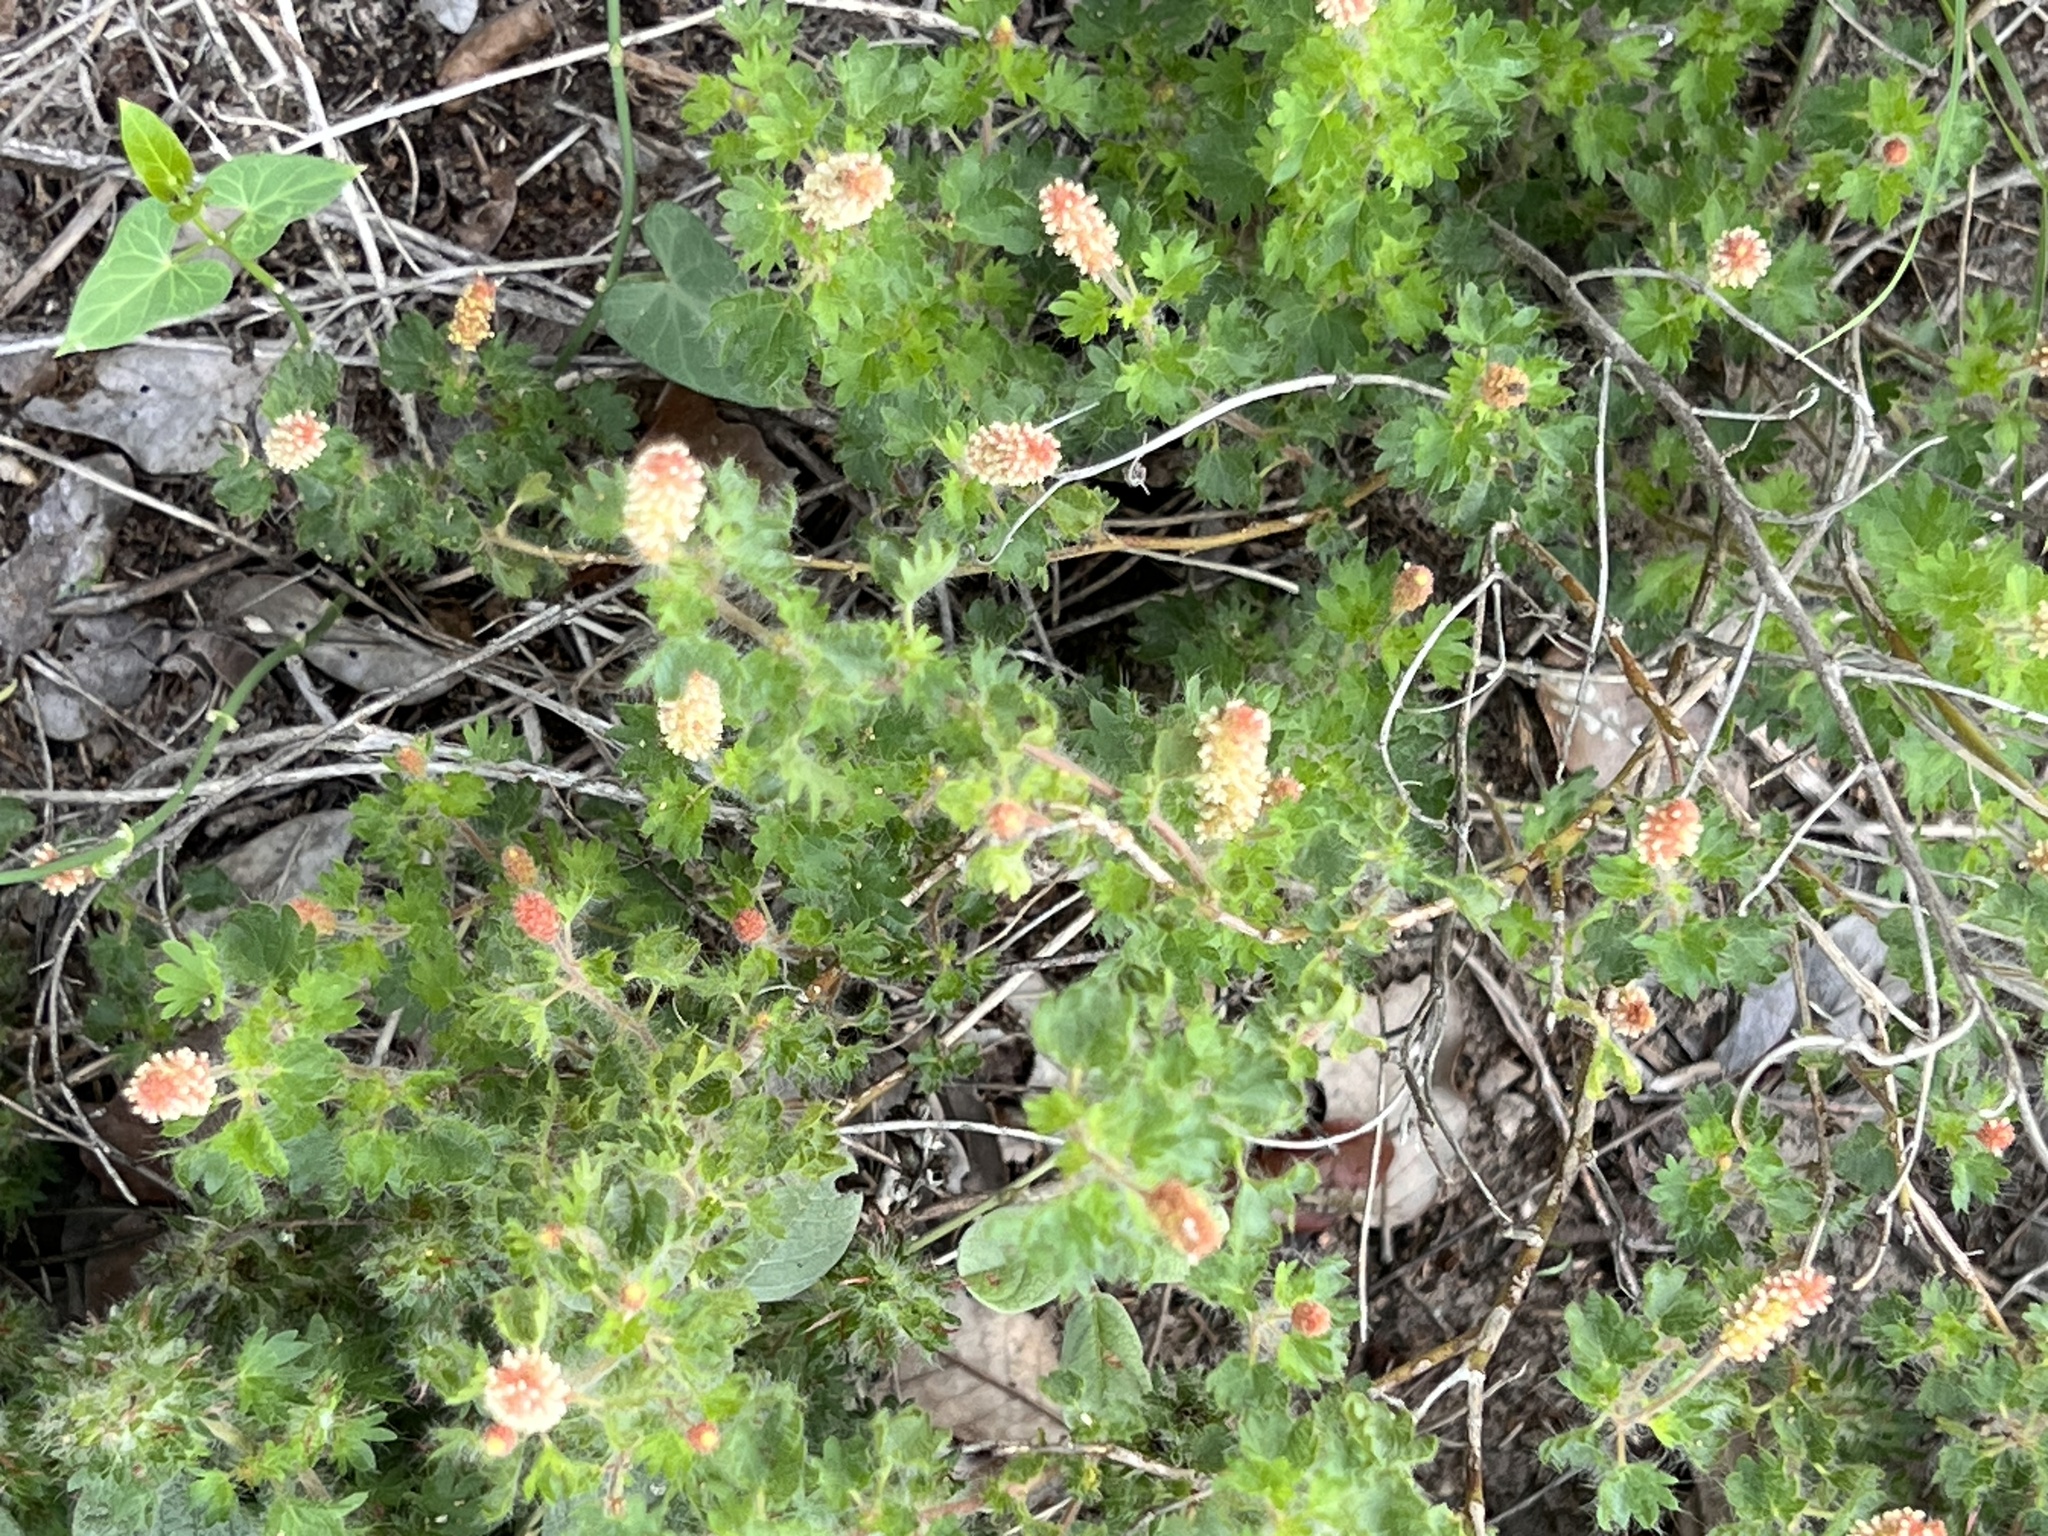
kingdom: Plantae
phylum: Tracheophyta
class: Magnoliopsida
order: Malpighiales
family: Euphorbiaceae
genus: Acalypha
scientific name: Acalypha radians
